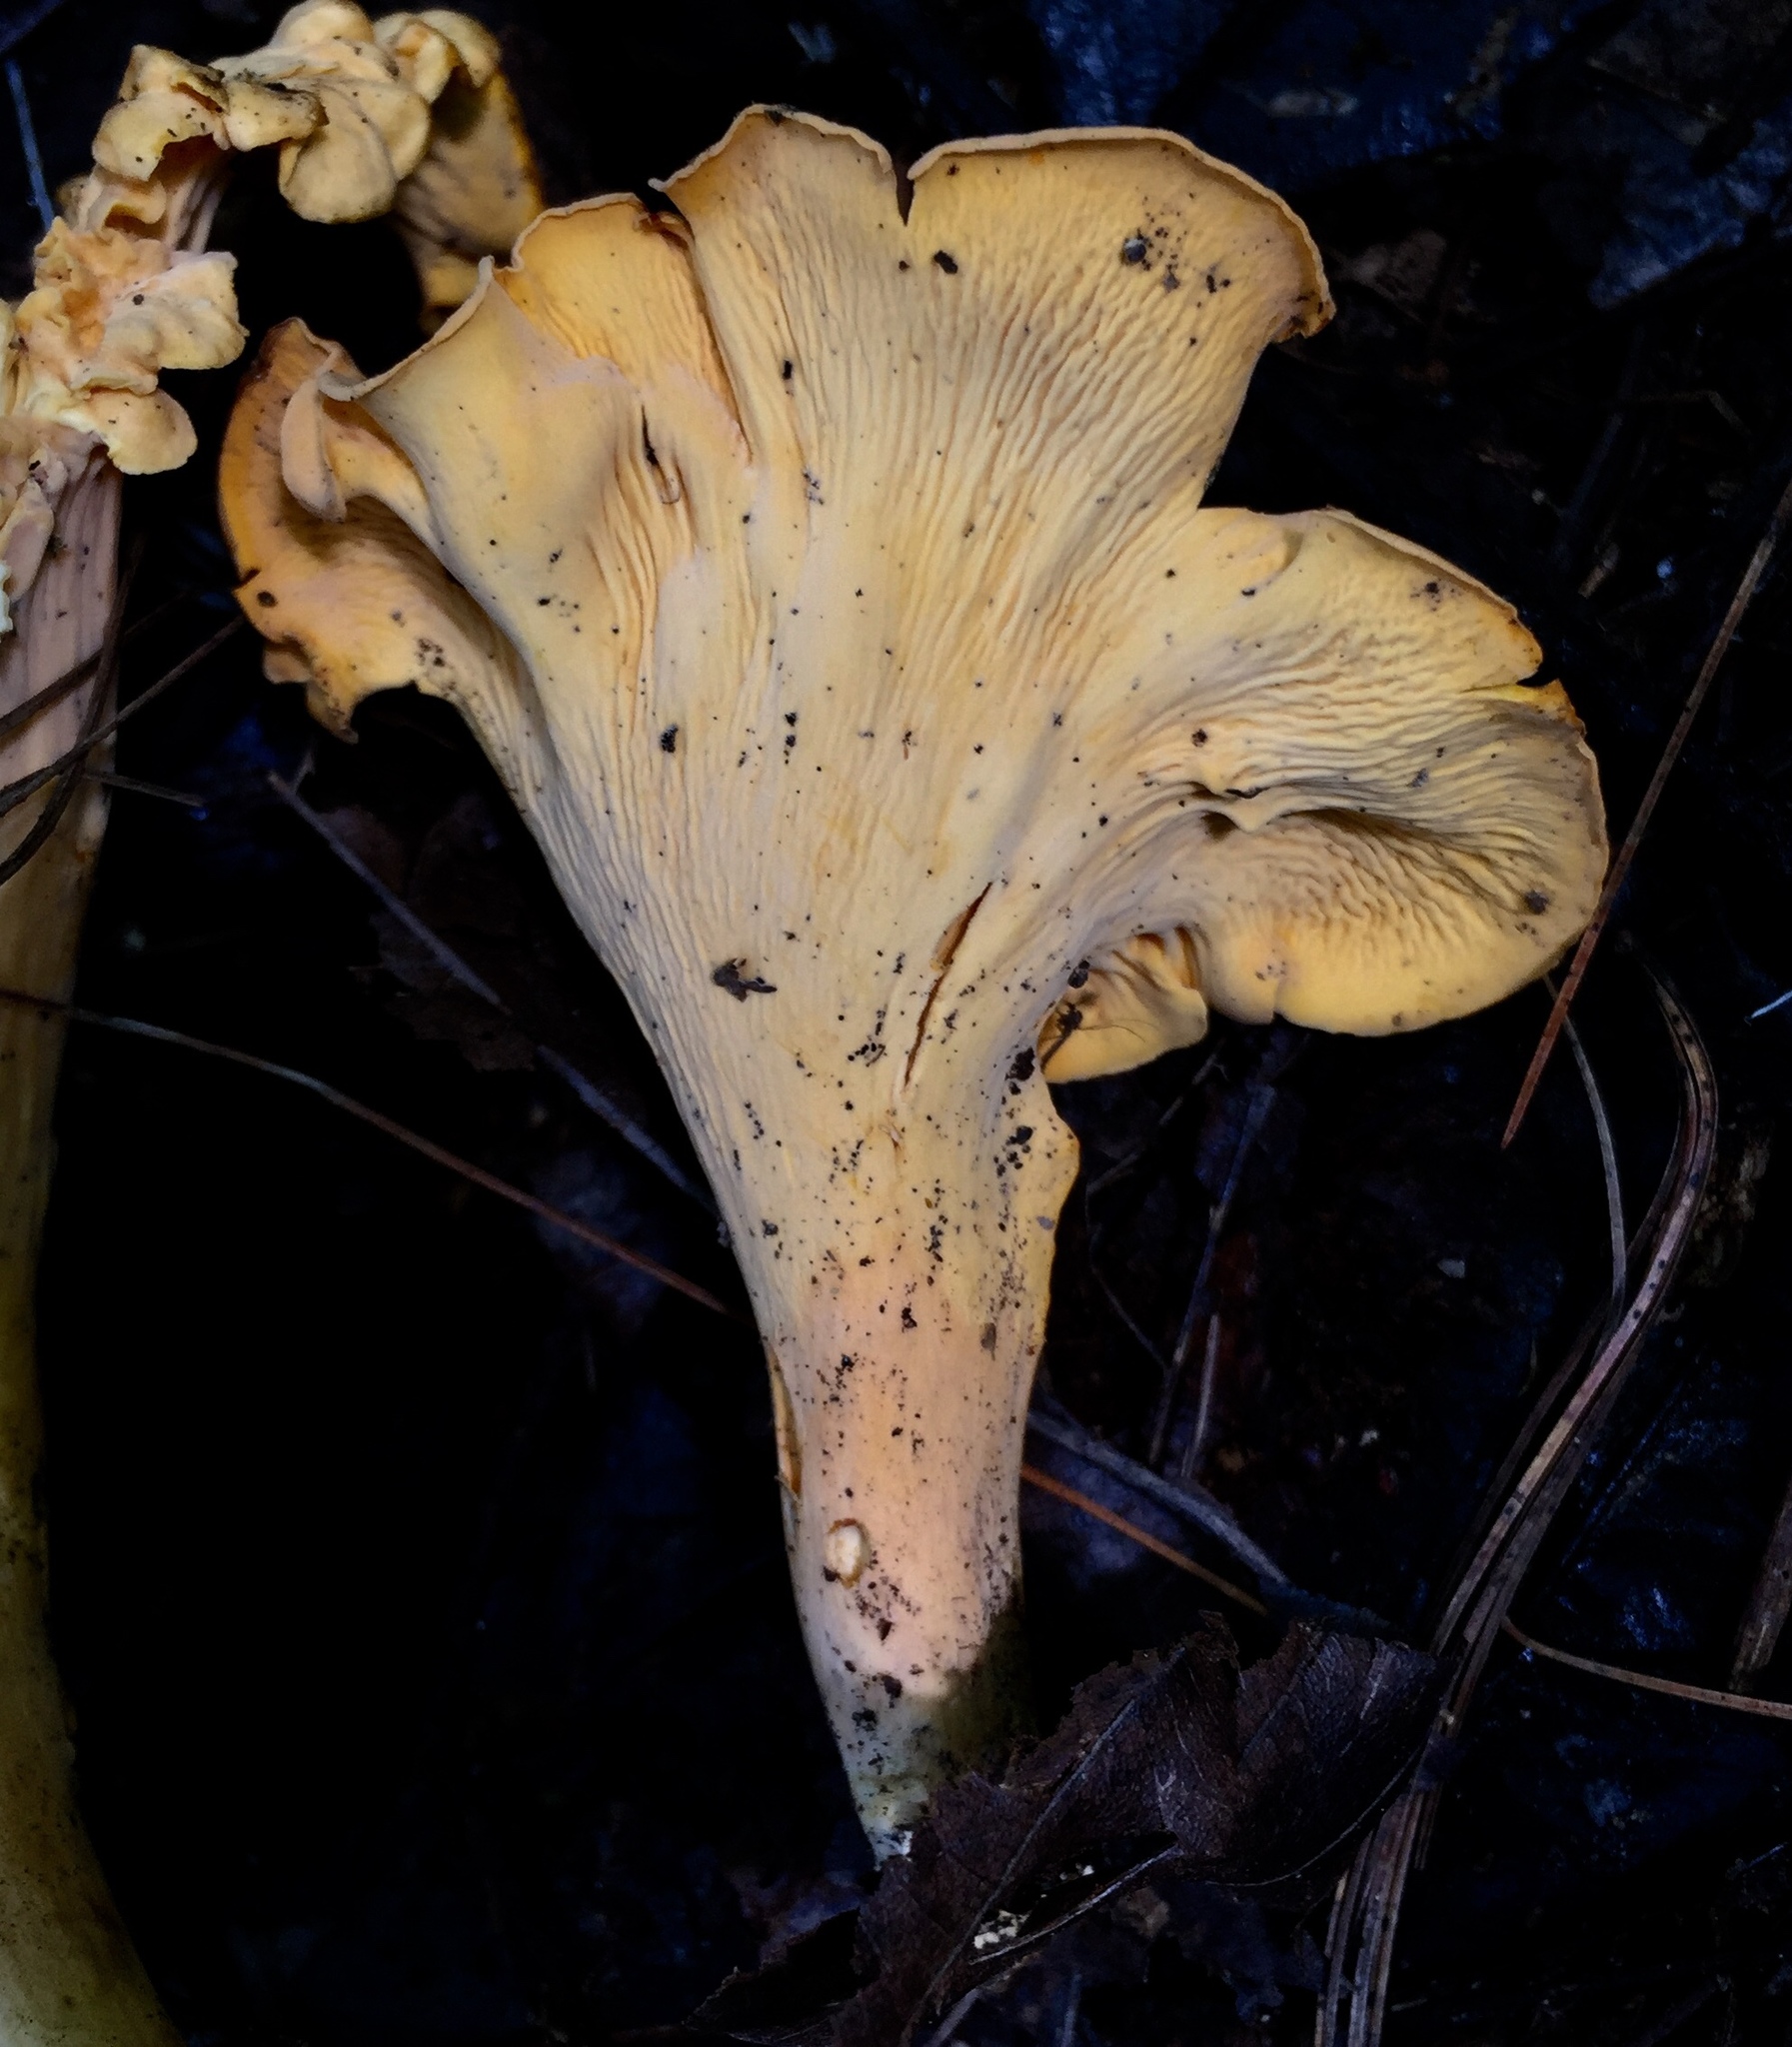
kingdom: Fungi
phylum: Basidiomycota
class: Agaricomycetes
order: Cantharellales
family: Hydnaceae
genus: Cantharellus
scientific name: Cantharellus lateritius
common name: Smooth chanterelle
